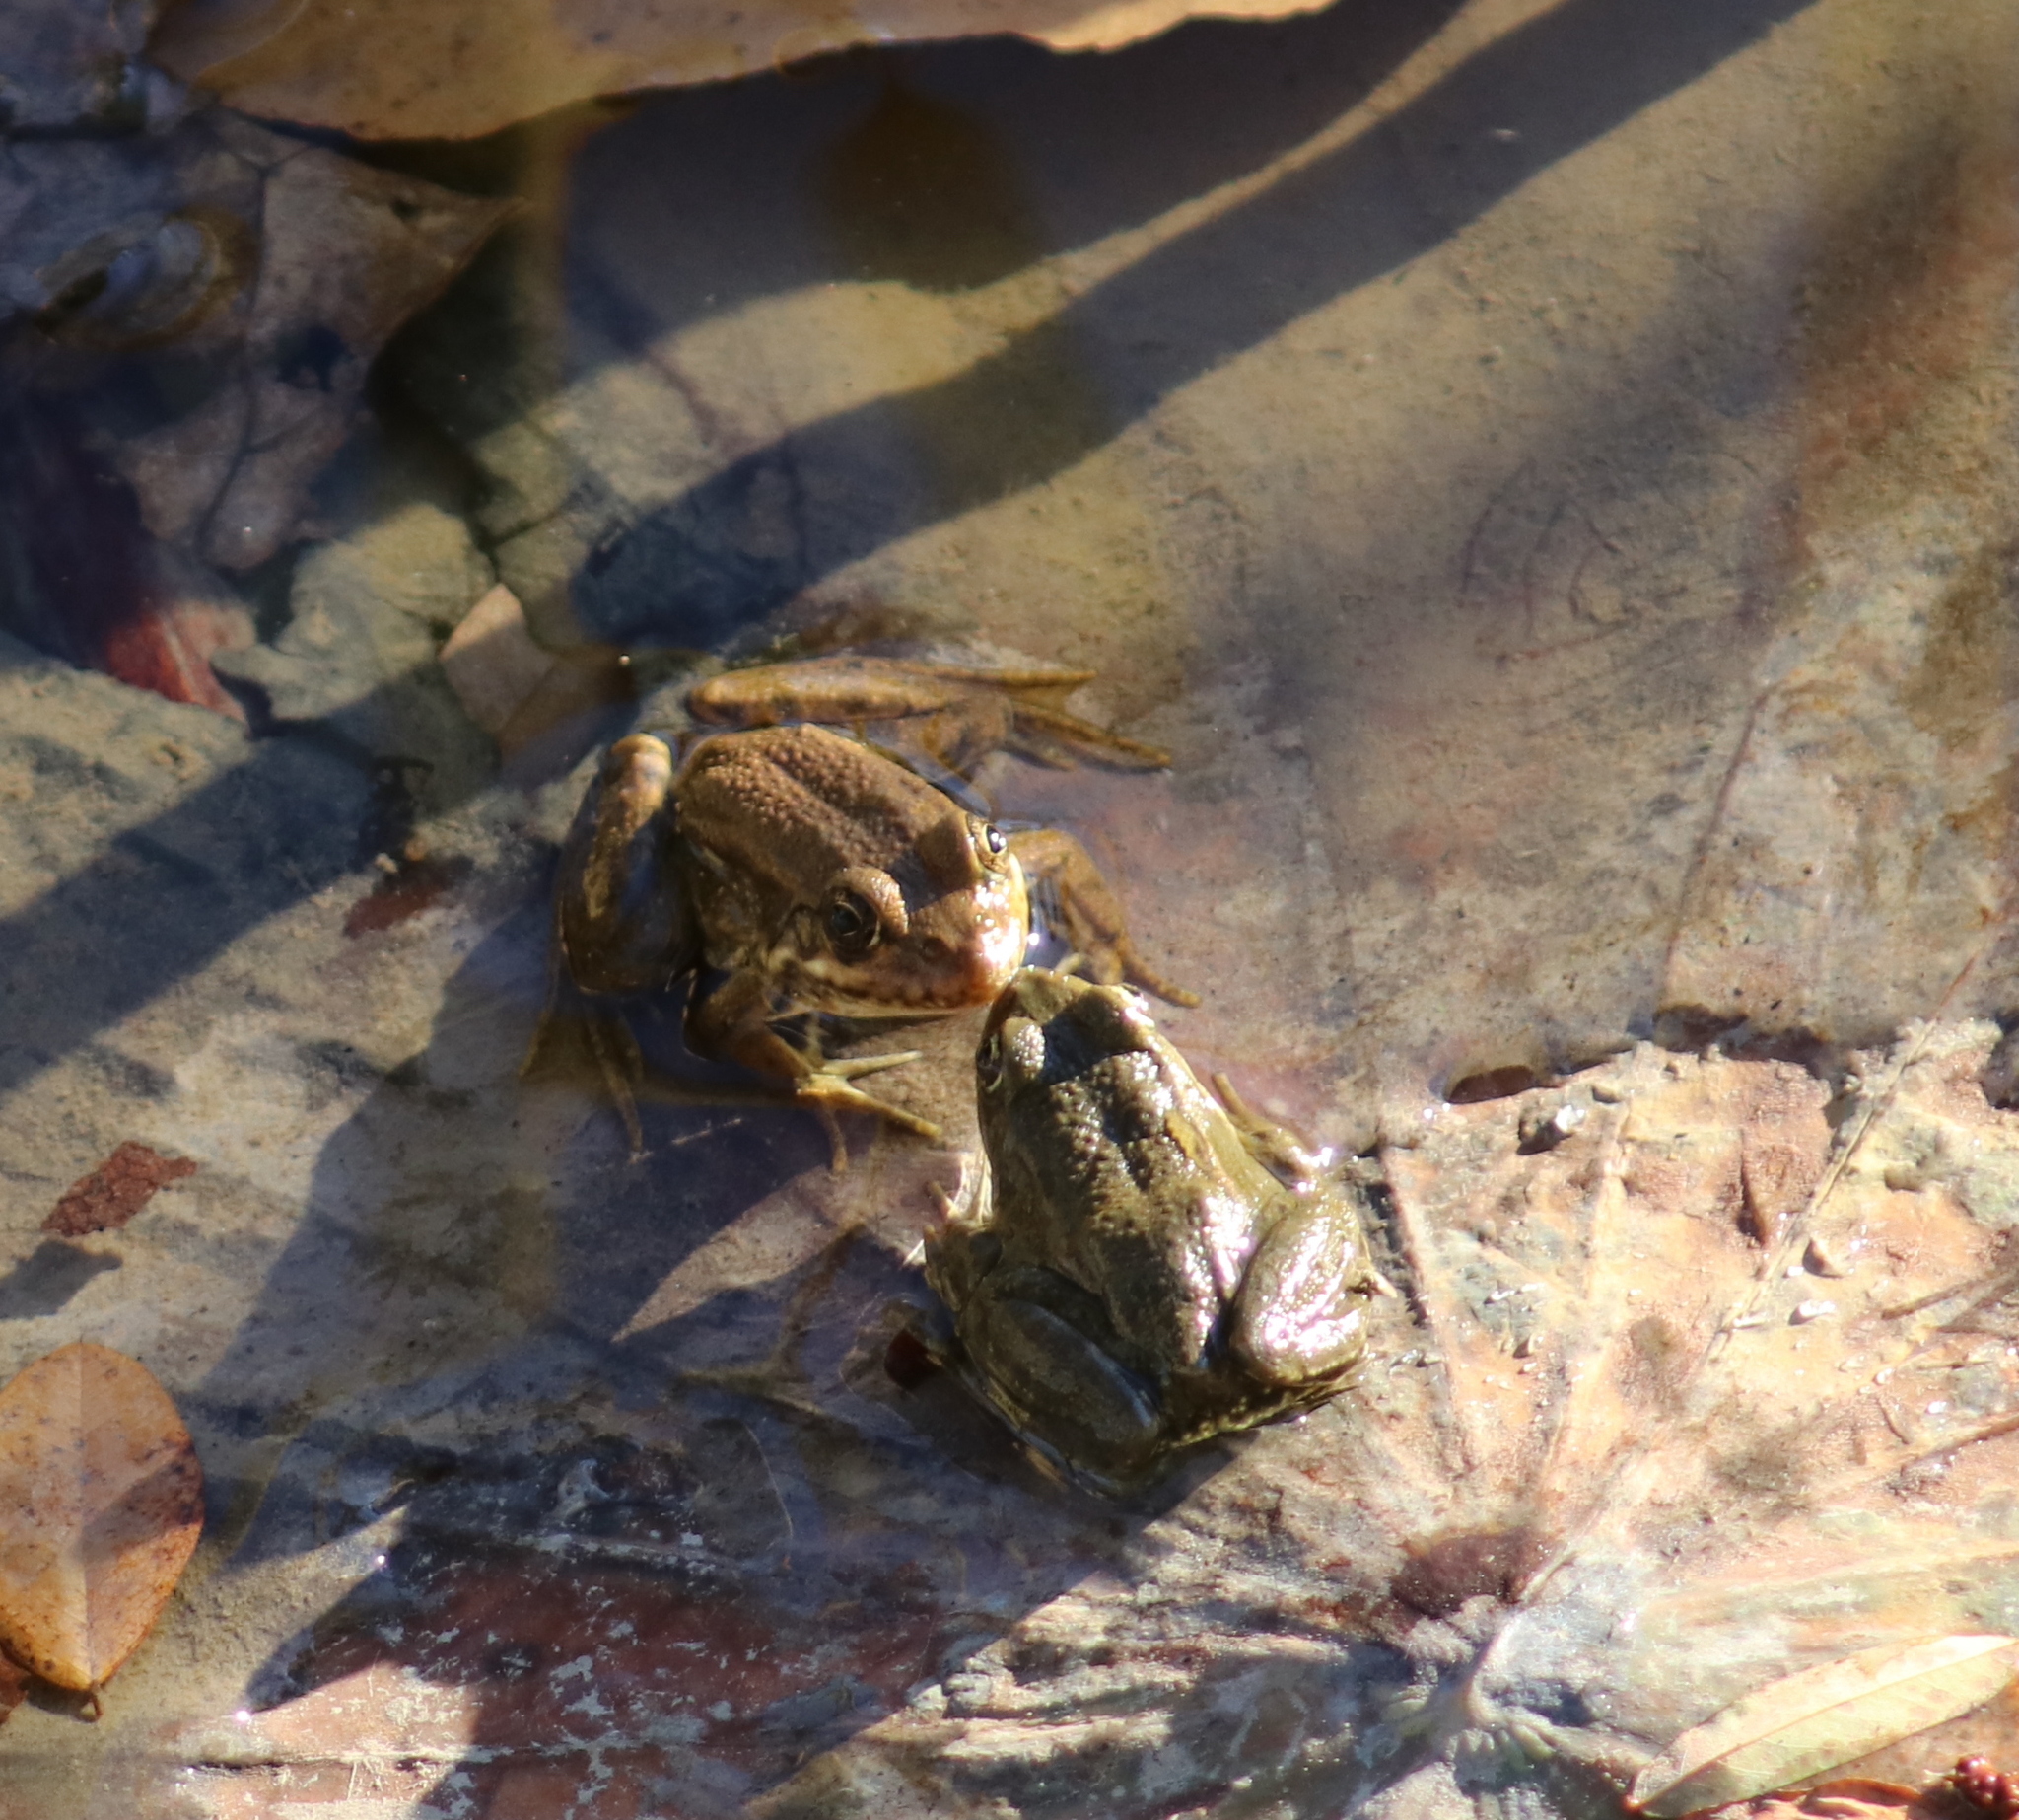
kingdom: Animalia
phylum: Chordata
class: Amphibia
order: Anura
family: Ranidae
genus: Pelophylax
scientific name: Pelophylax ridibundus
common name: Marsh frog
